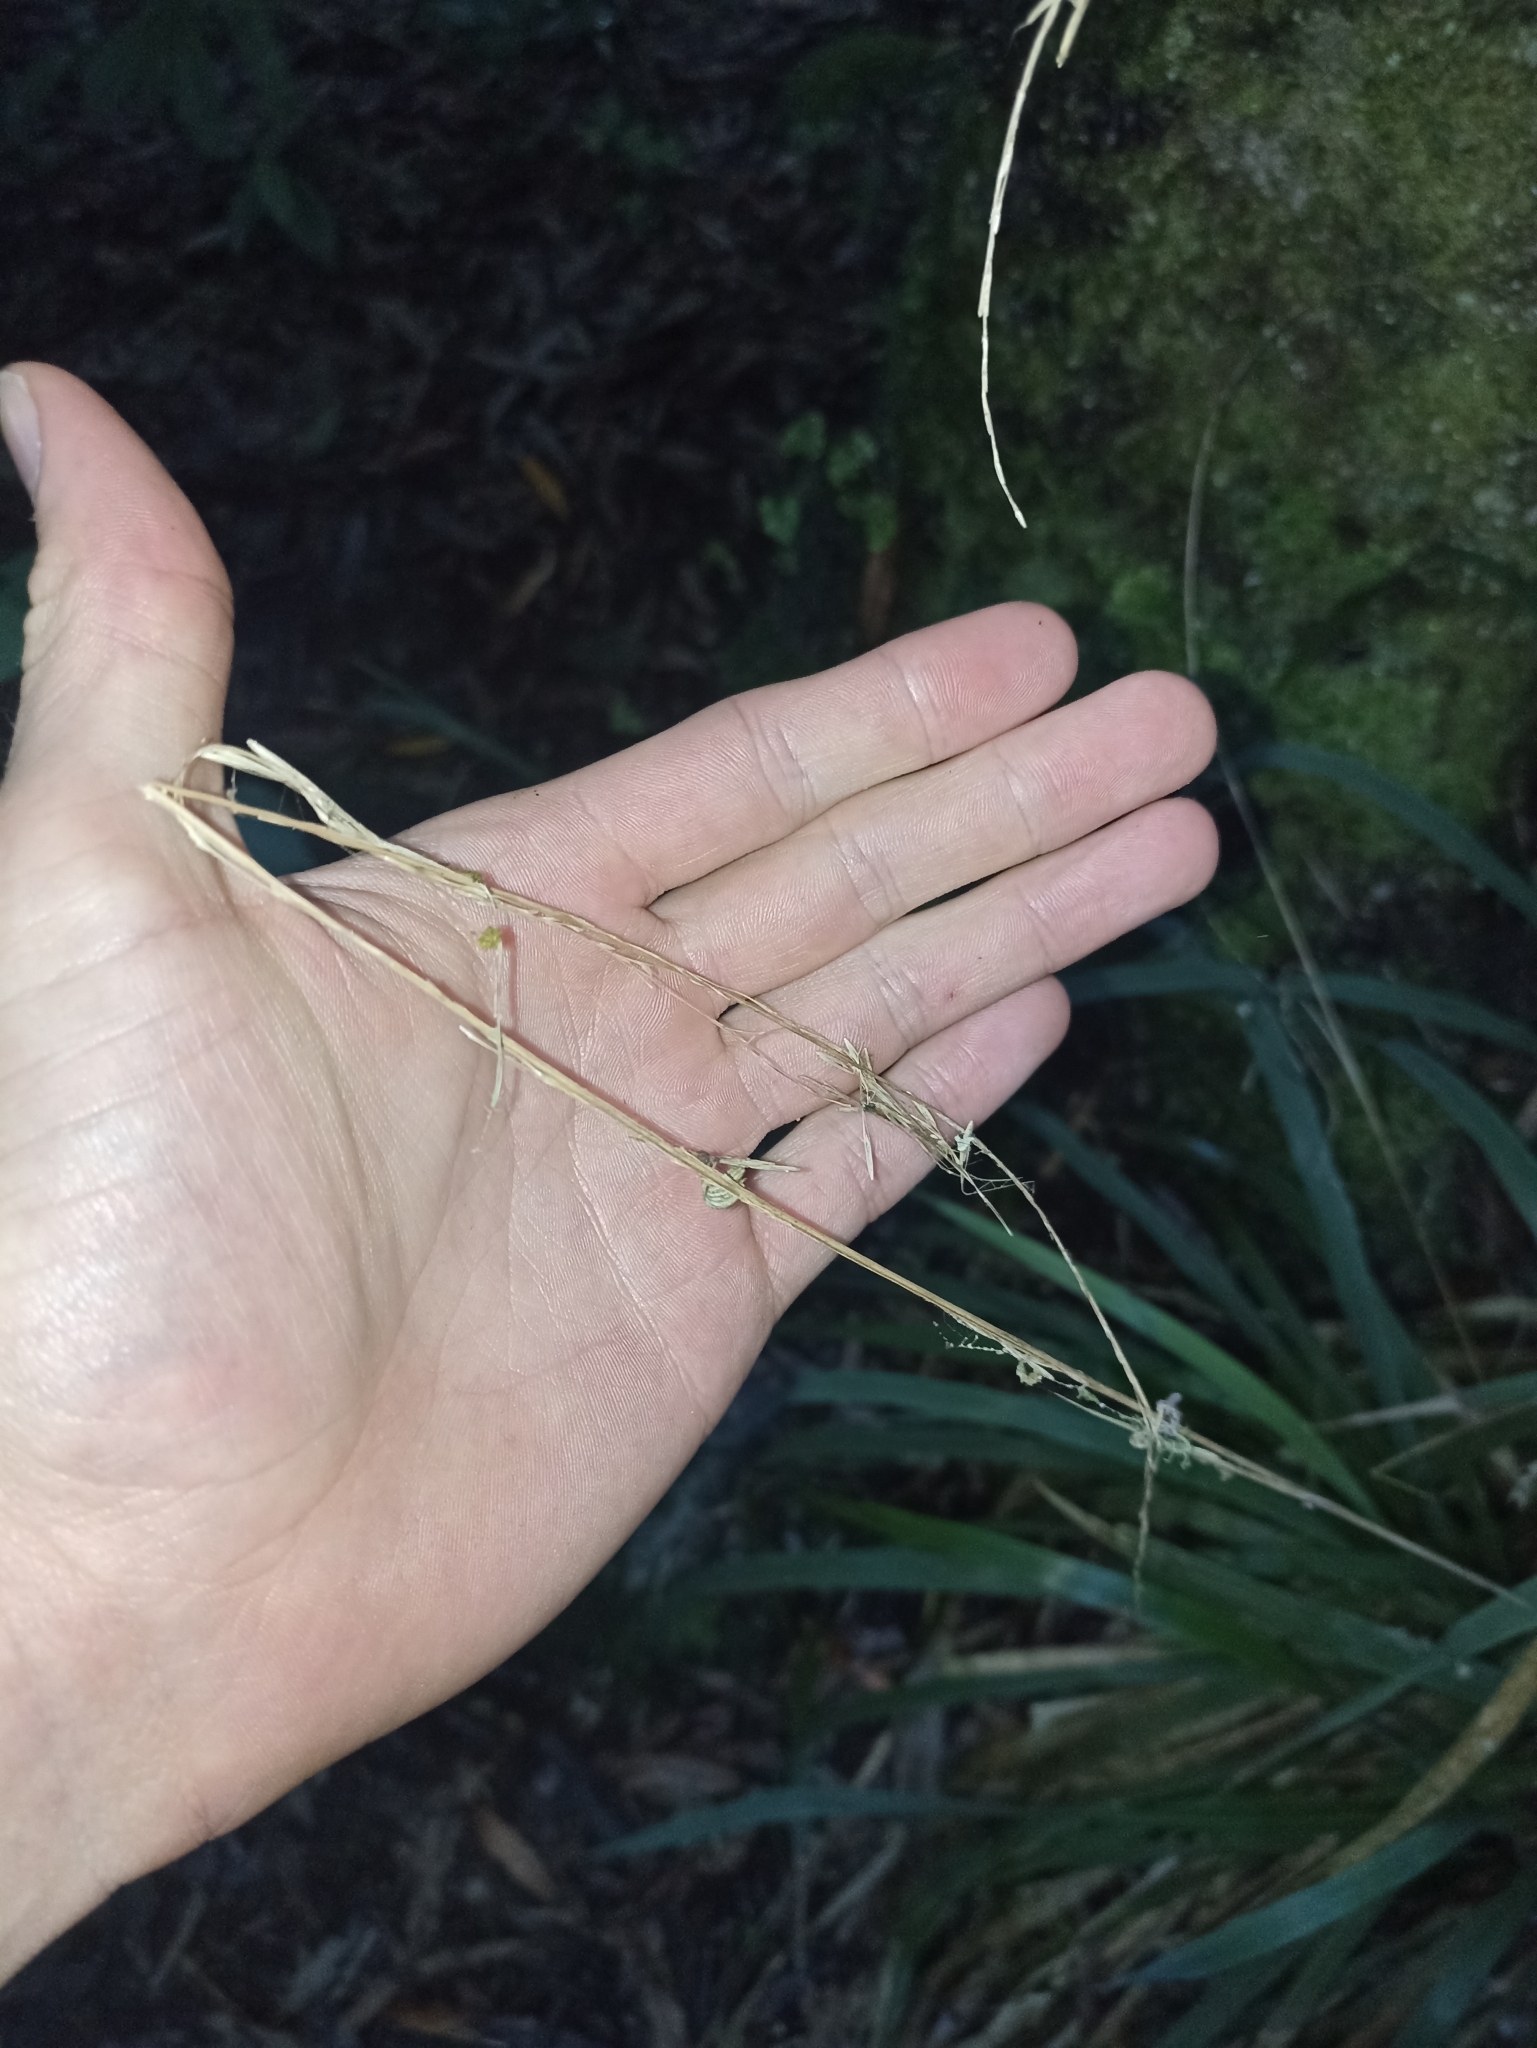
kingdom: Plantae
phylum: Tracheophyta
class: Liliopsida
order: Poales
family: Poaceae
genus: Ehrharta
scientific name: Ehrharta diplax
